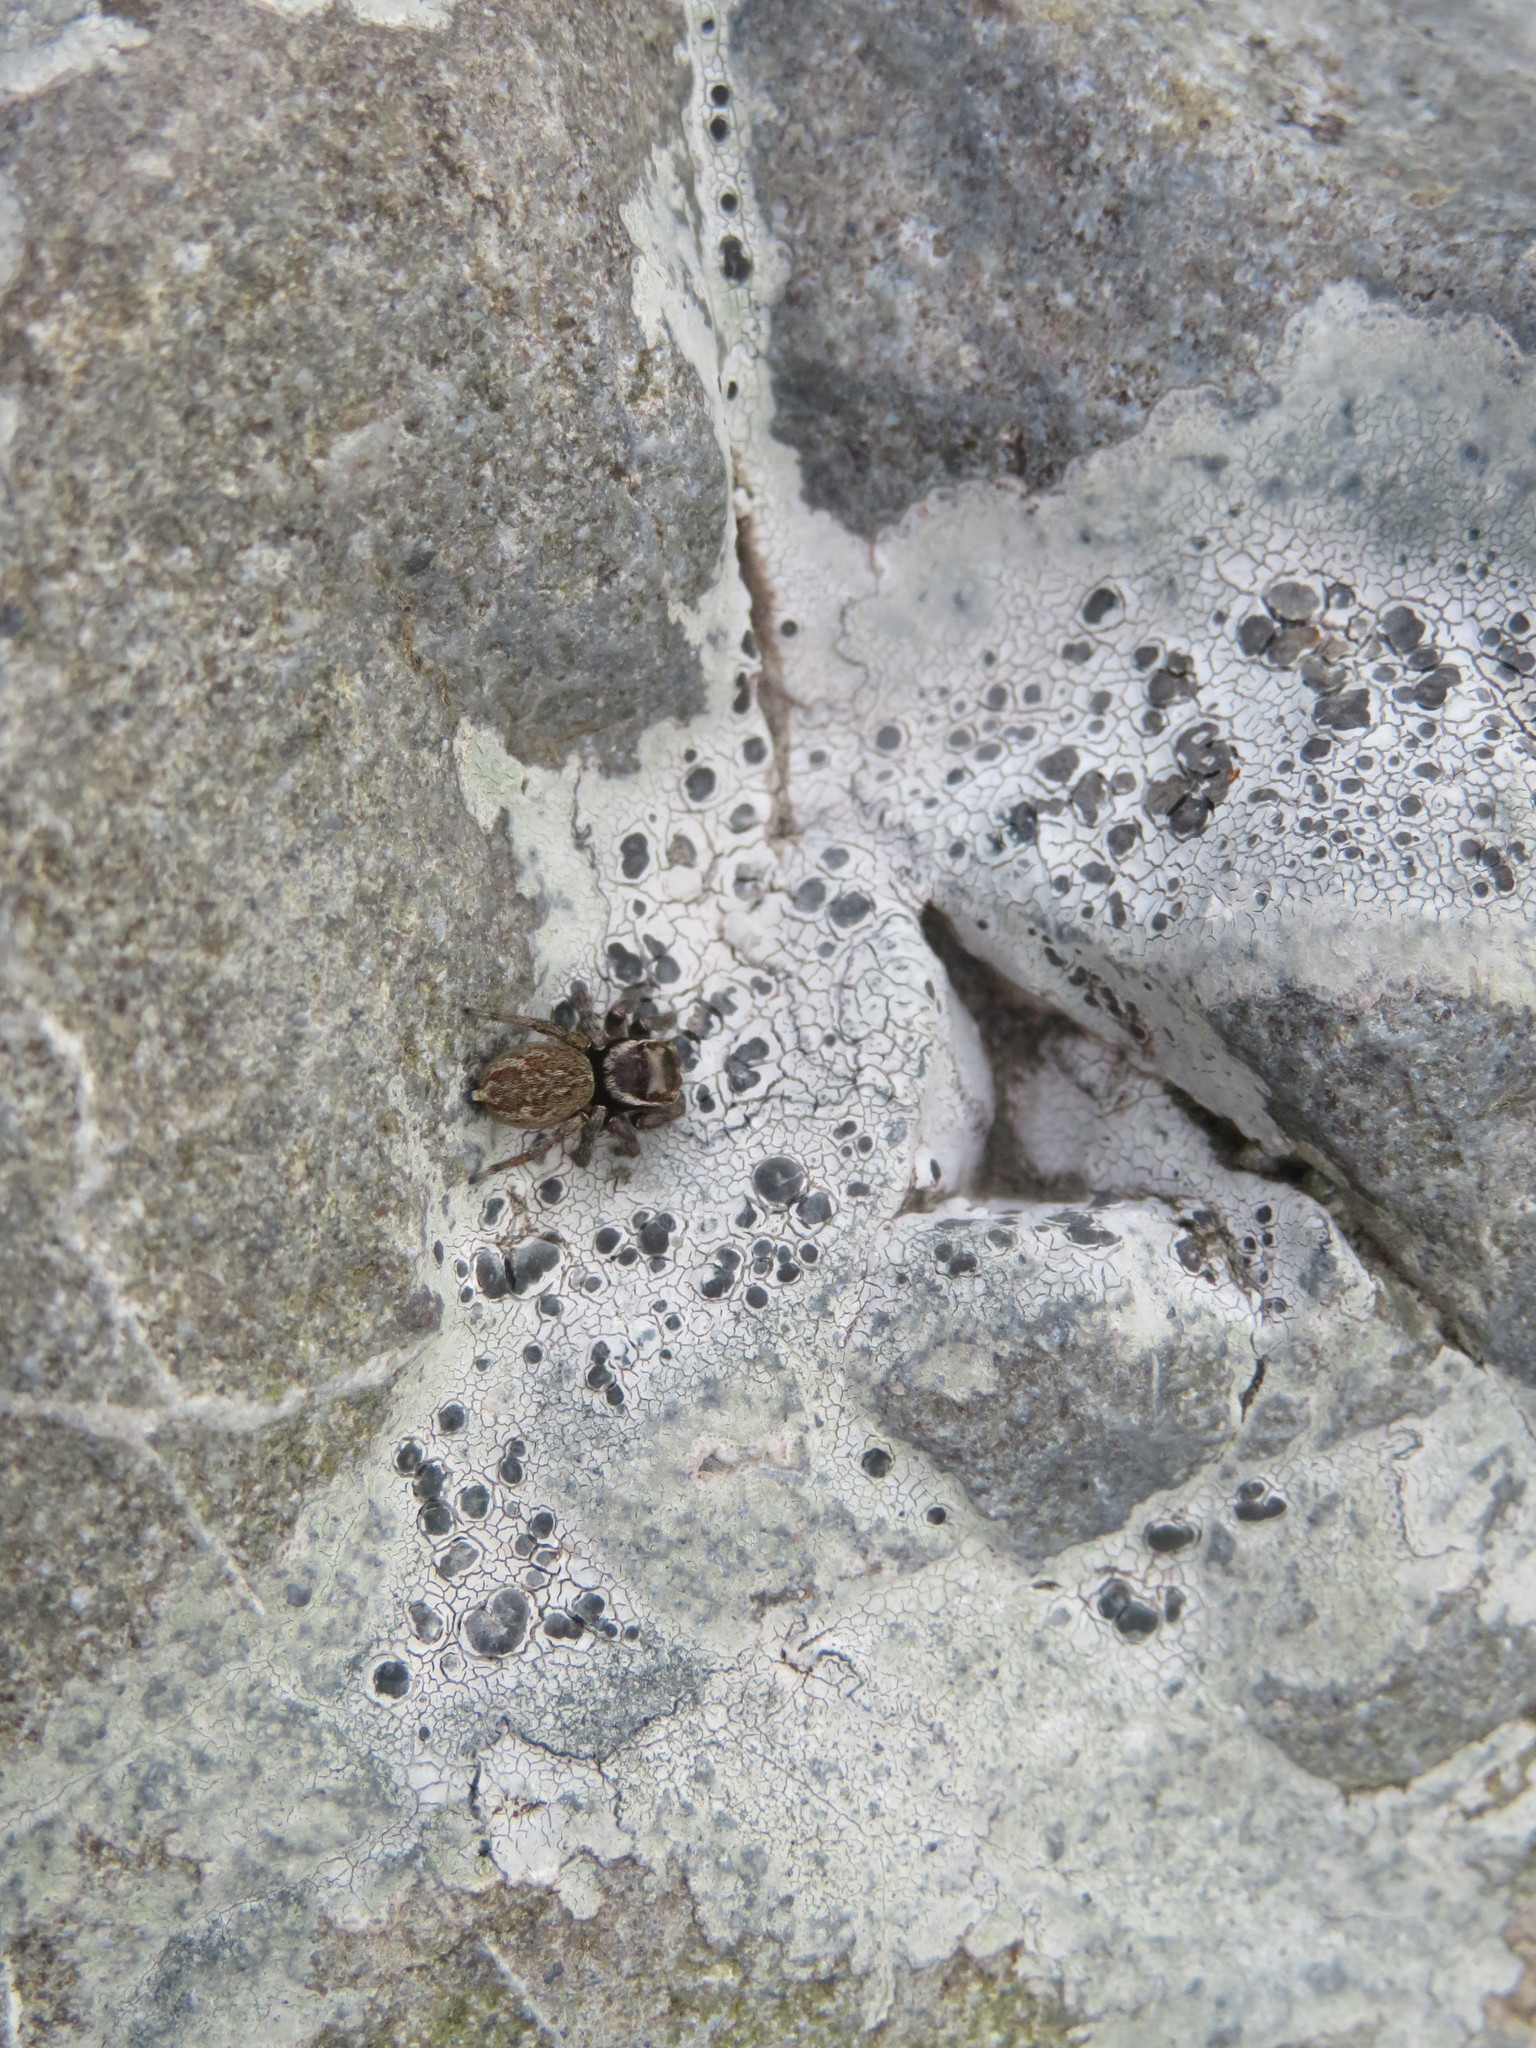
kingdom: Animalia
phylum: Arthropoda
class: Arachnida
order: Araneae
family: Salticidae
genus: Maratus
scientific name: Maratus griseus
